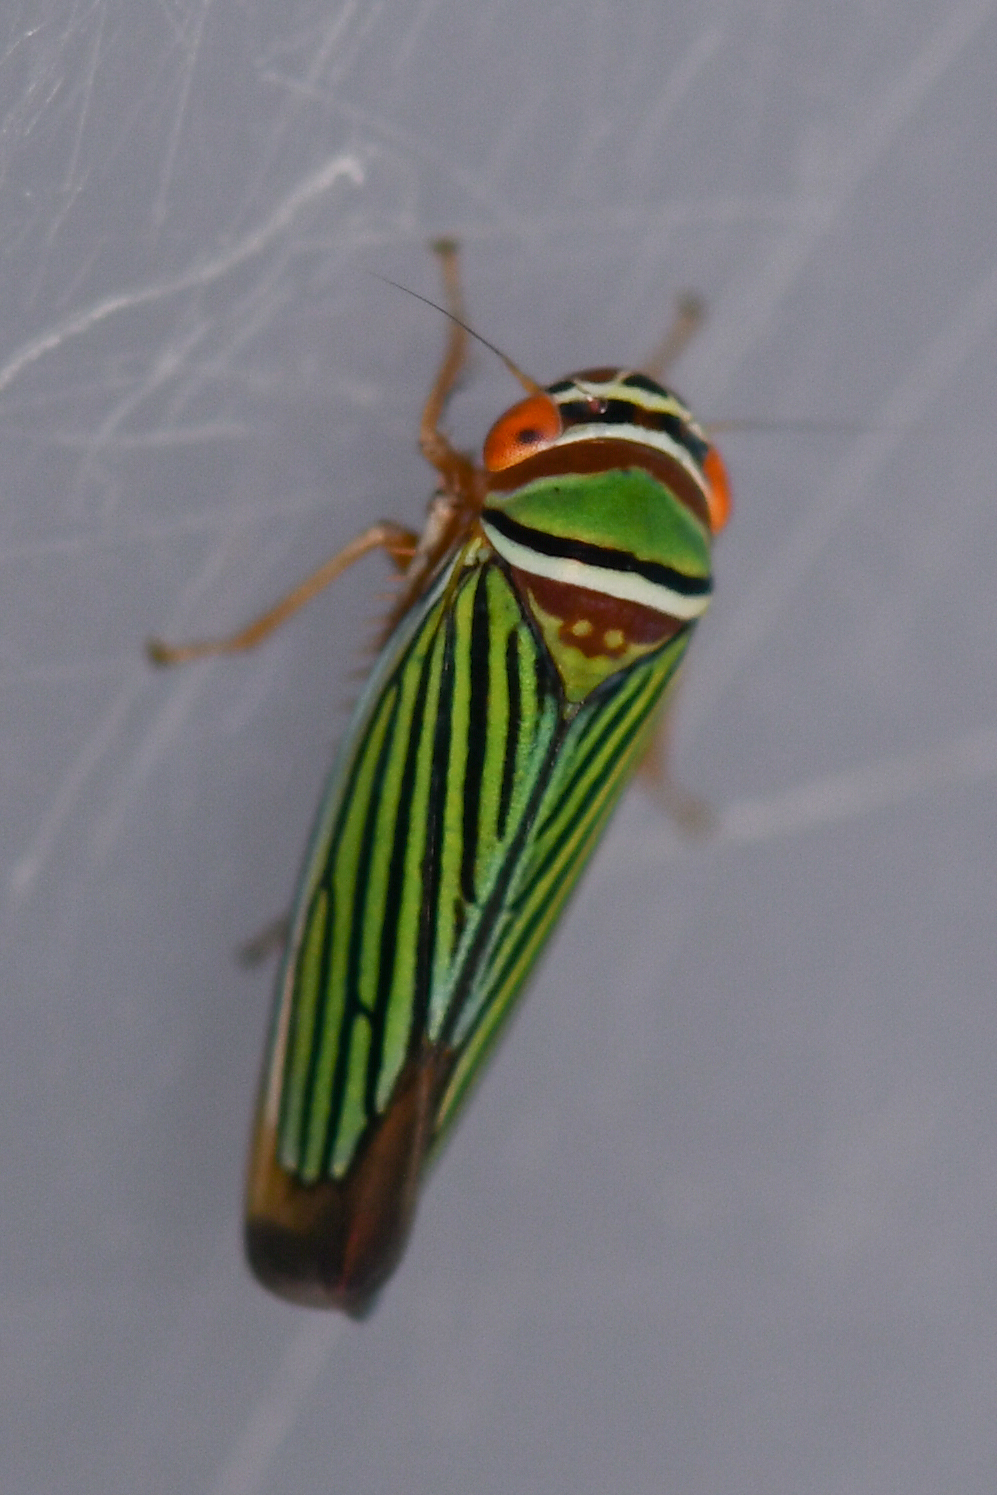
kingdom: Animalia
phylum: Arthropoda
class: Insecta
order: Hemiptera
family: Cicadellidae
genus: Tylozygus
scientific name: Tylozygus fuscolineellus
